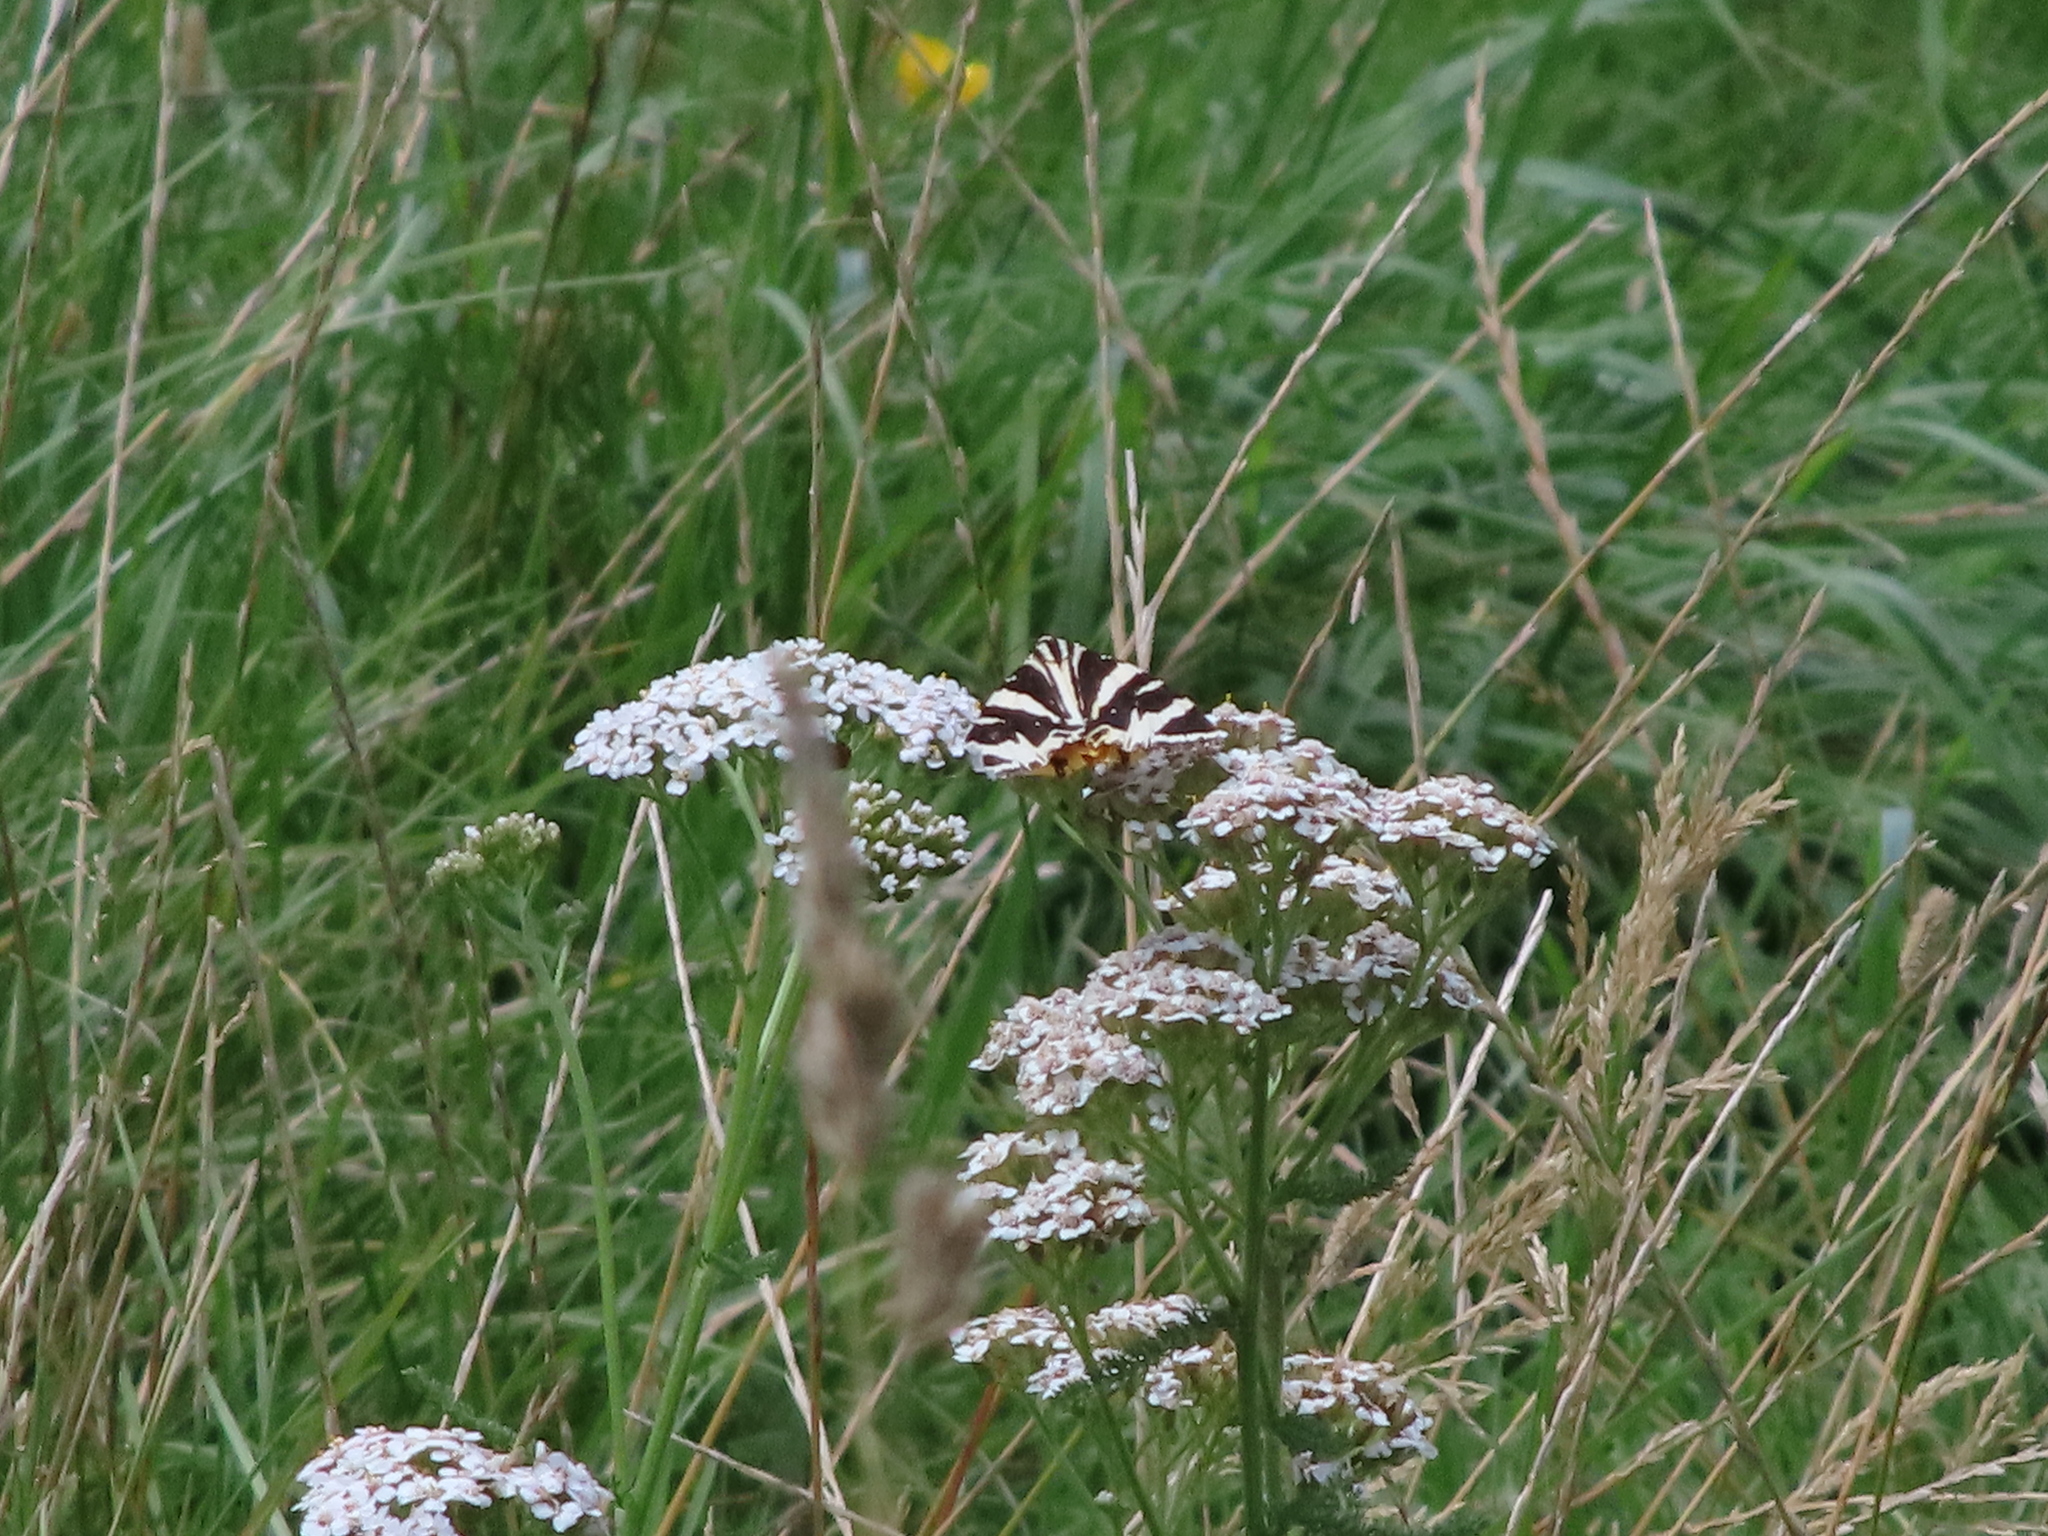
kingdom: Animalia
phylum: Arthropoda
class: Insecta
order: Lepidoptera
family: Erebidae
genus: Euplagia
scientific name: Euplagia quadripunctaria
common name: Jersey tiger
